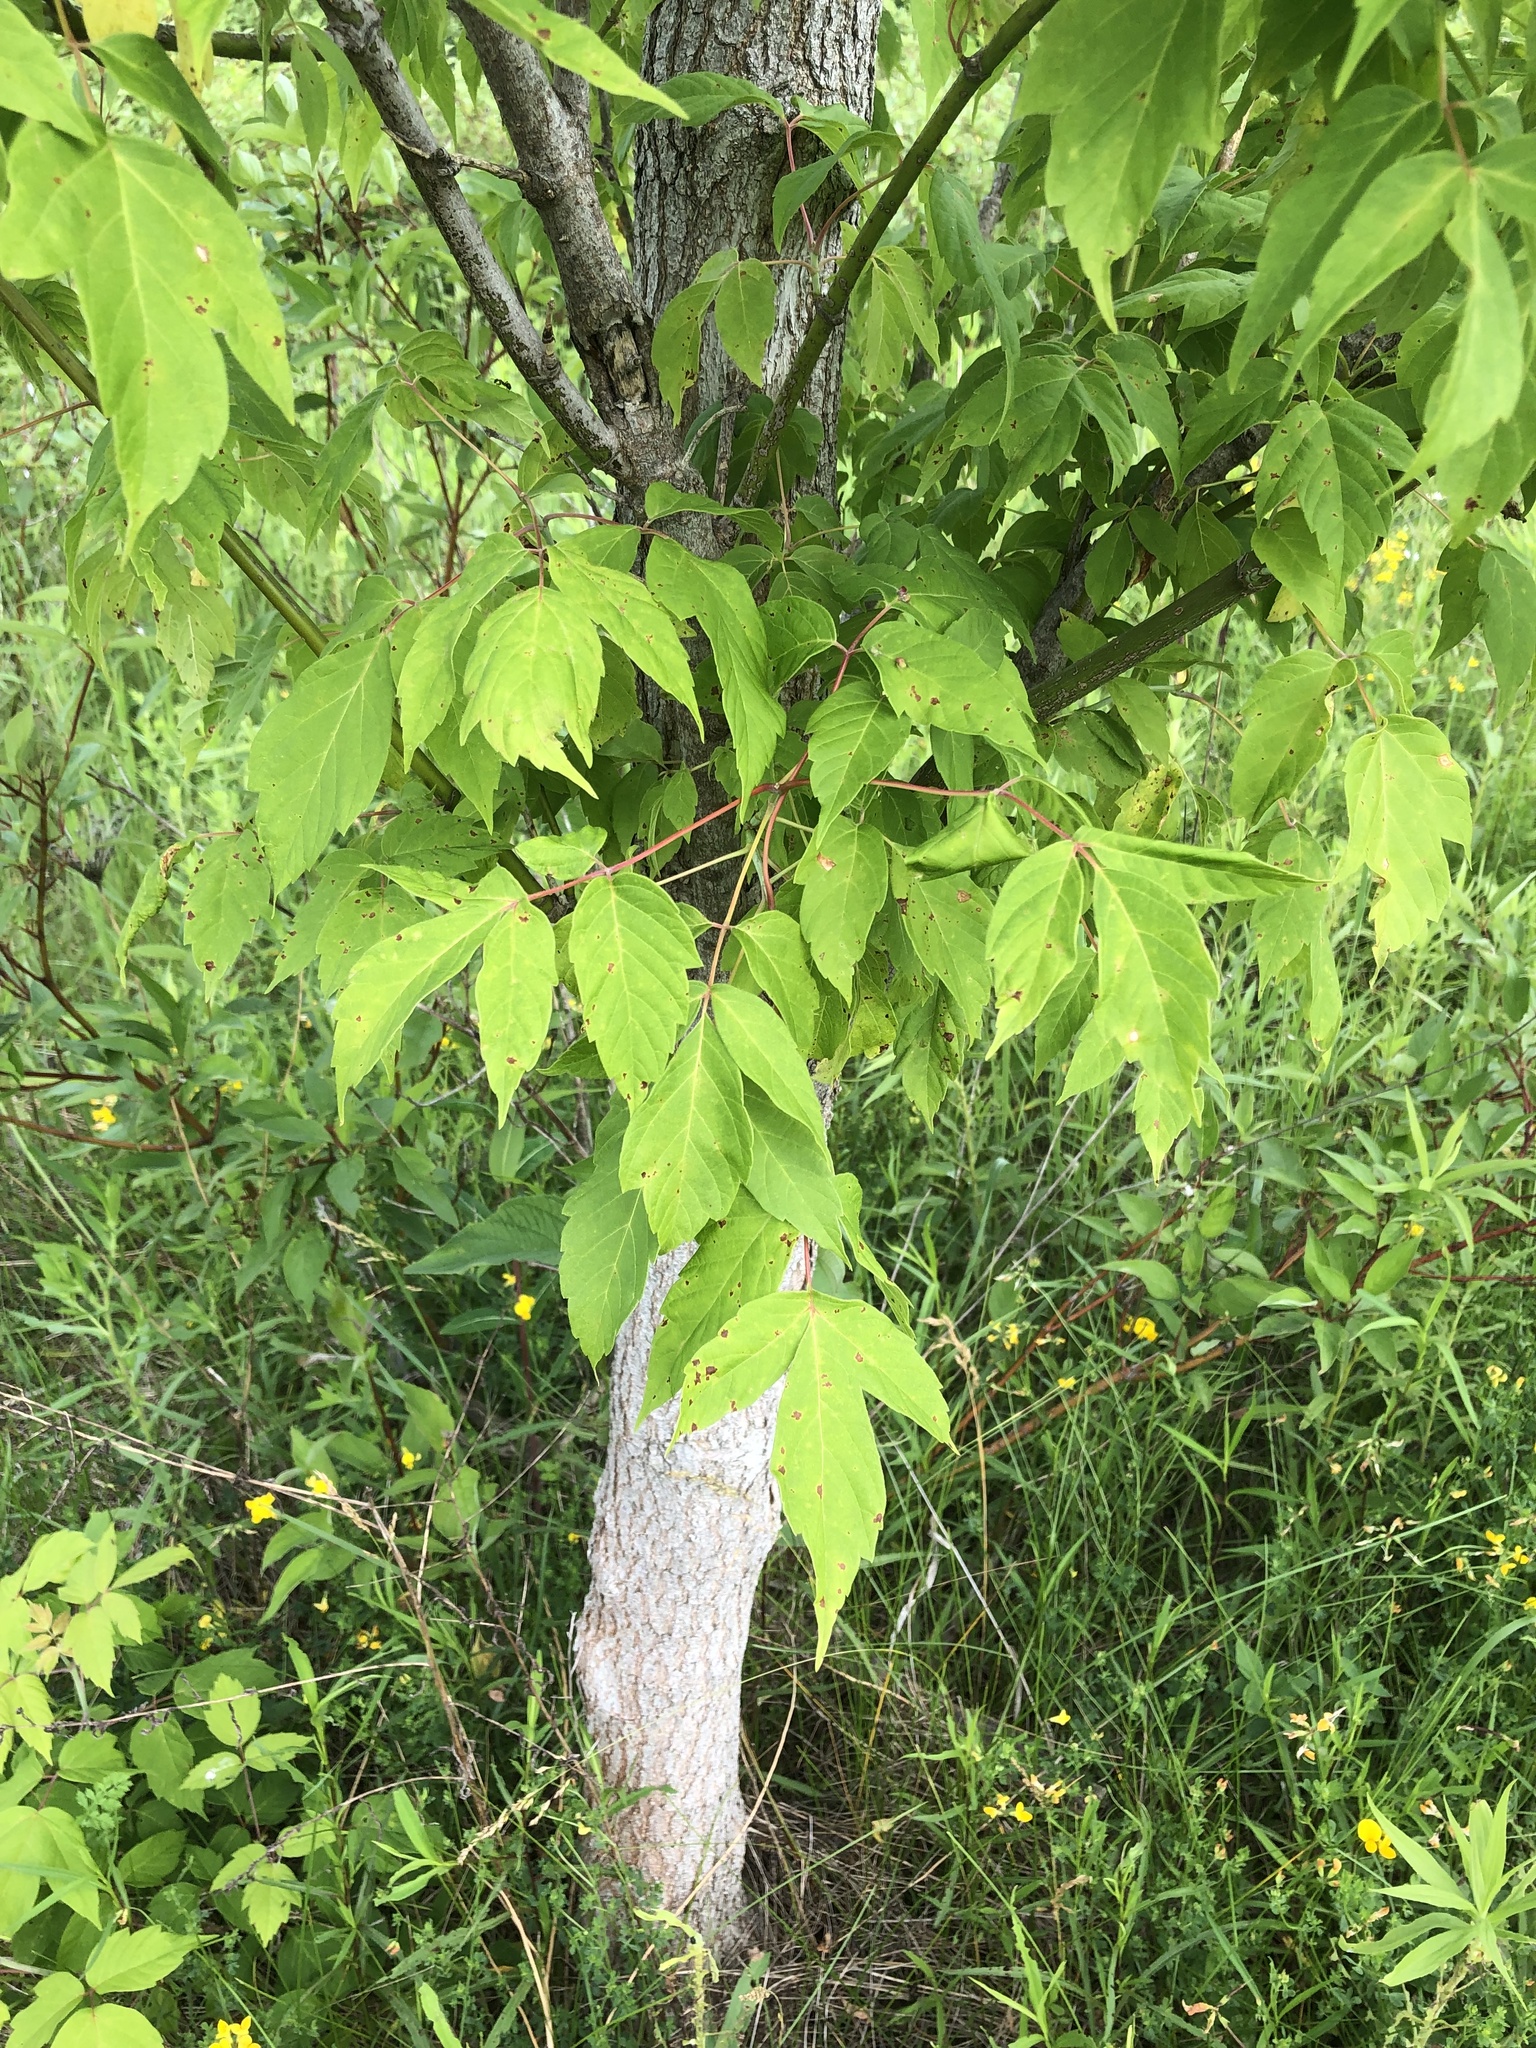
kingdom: Plantae
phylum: Tracheophyta
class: Magnoliopsida
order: Sapindales
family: Sapindaceae
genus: Acer
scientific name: Acer negundo
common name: Ashleaf maple
